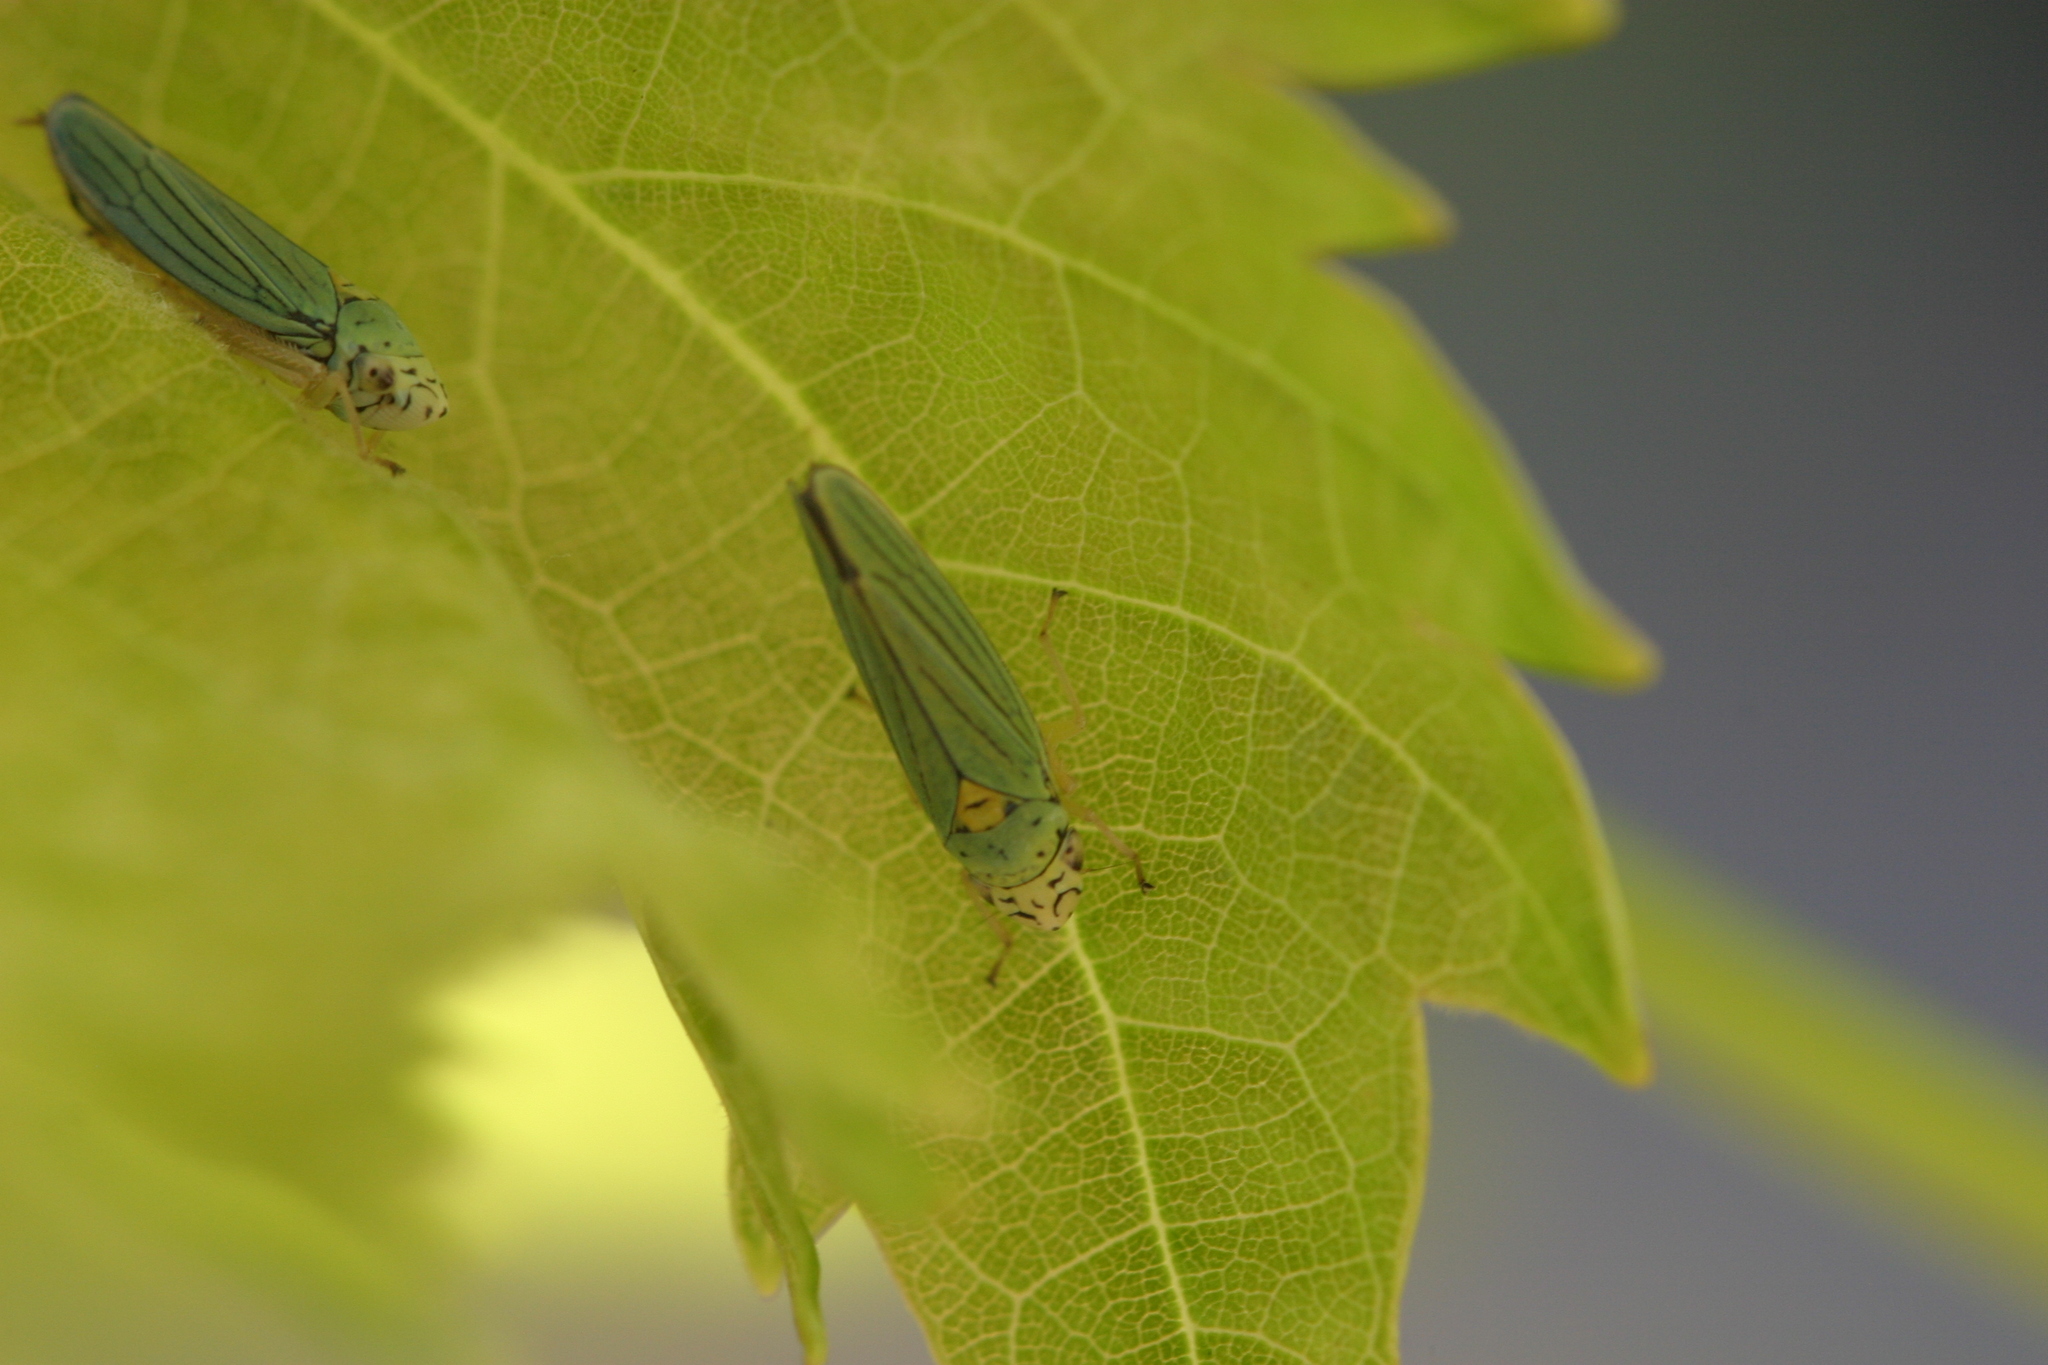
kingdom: Animalia
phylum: Arthropoda
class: Insecta
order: Hemiptera
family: Cicadellidae
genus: Graphocephala
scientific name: Graphocephala atropunctata
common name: Blue-green sharpshooter
